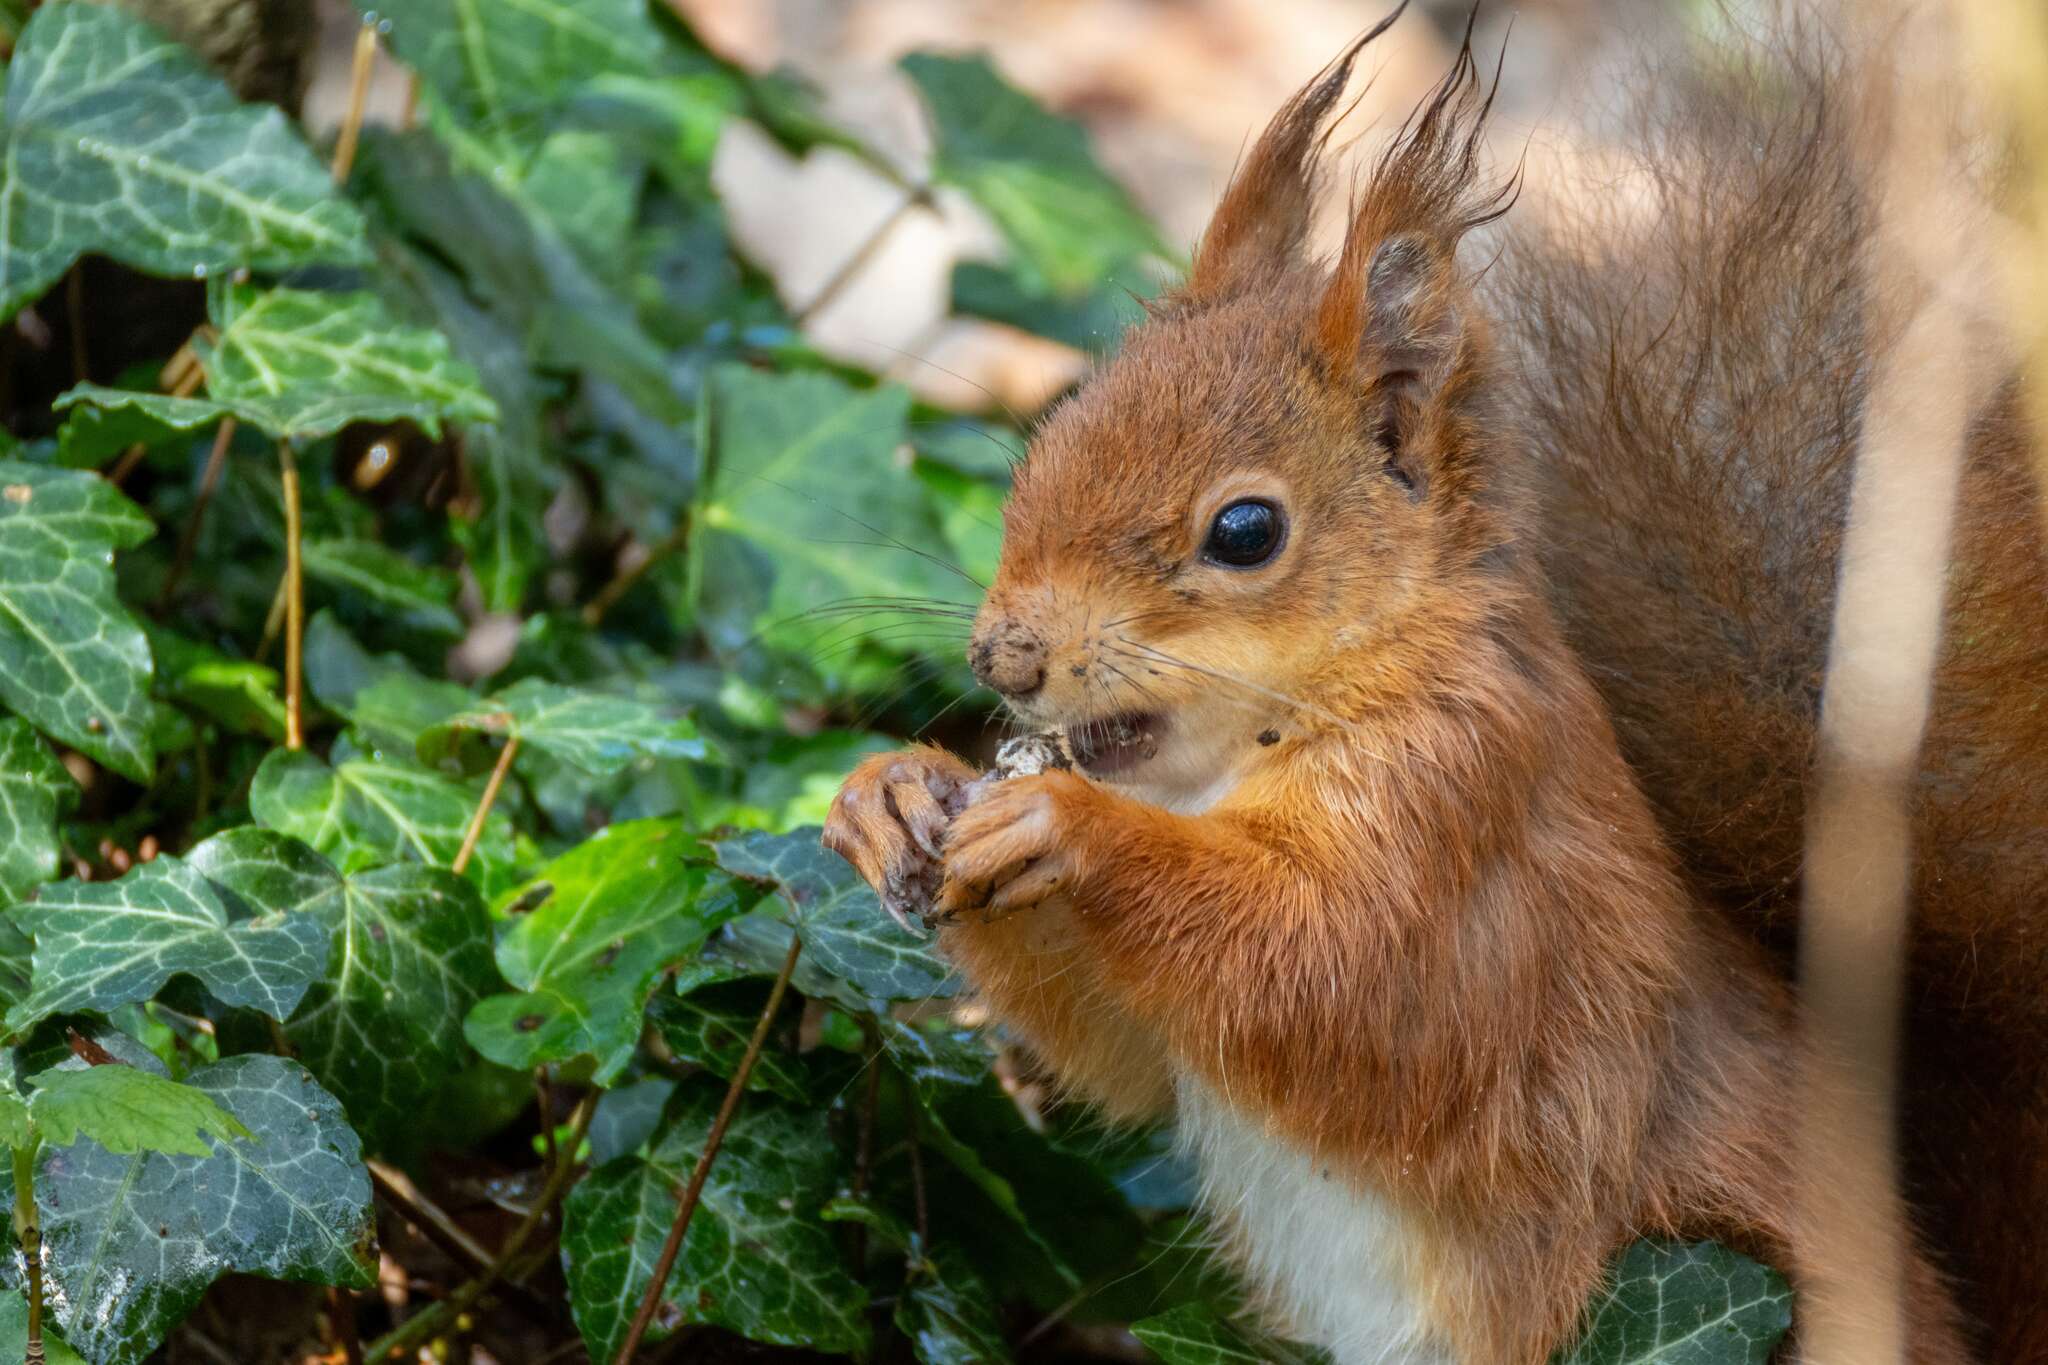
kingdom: Animalia
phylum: Chordata
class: Mammalia
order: Rodentia
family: Sciuridae
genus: Sciurus
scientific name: Sciurus vulgaris
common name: Eurasian red squirrel
